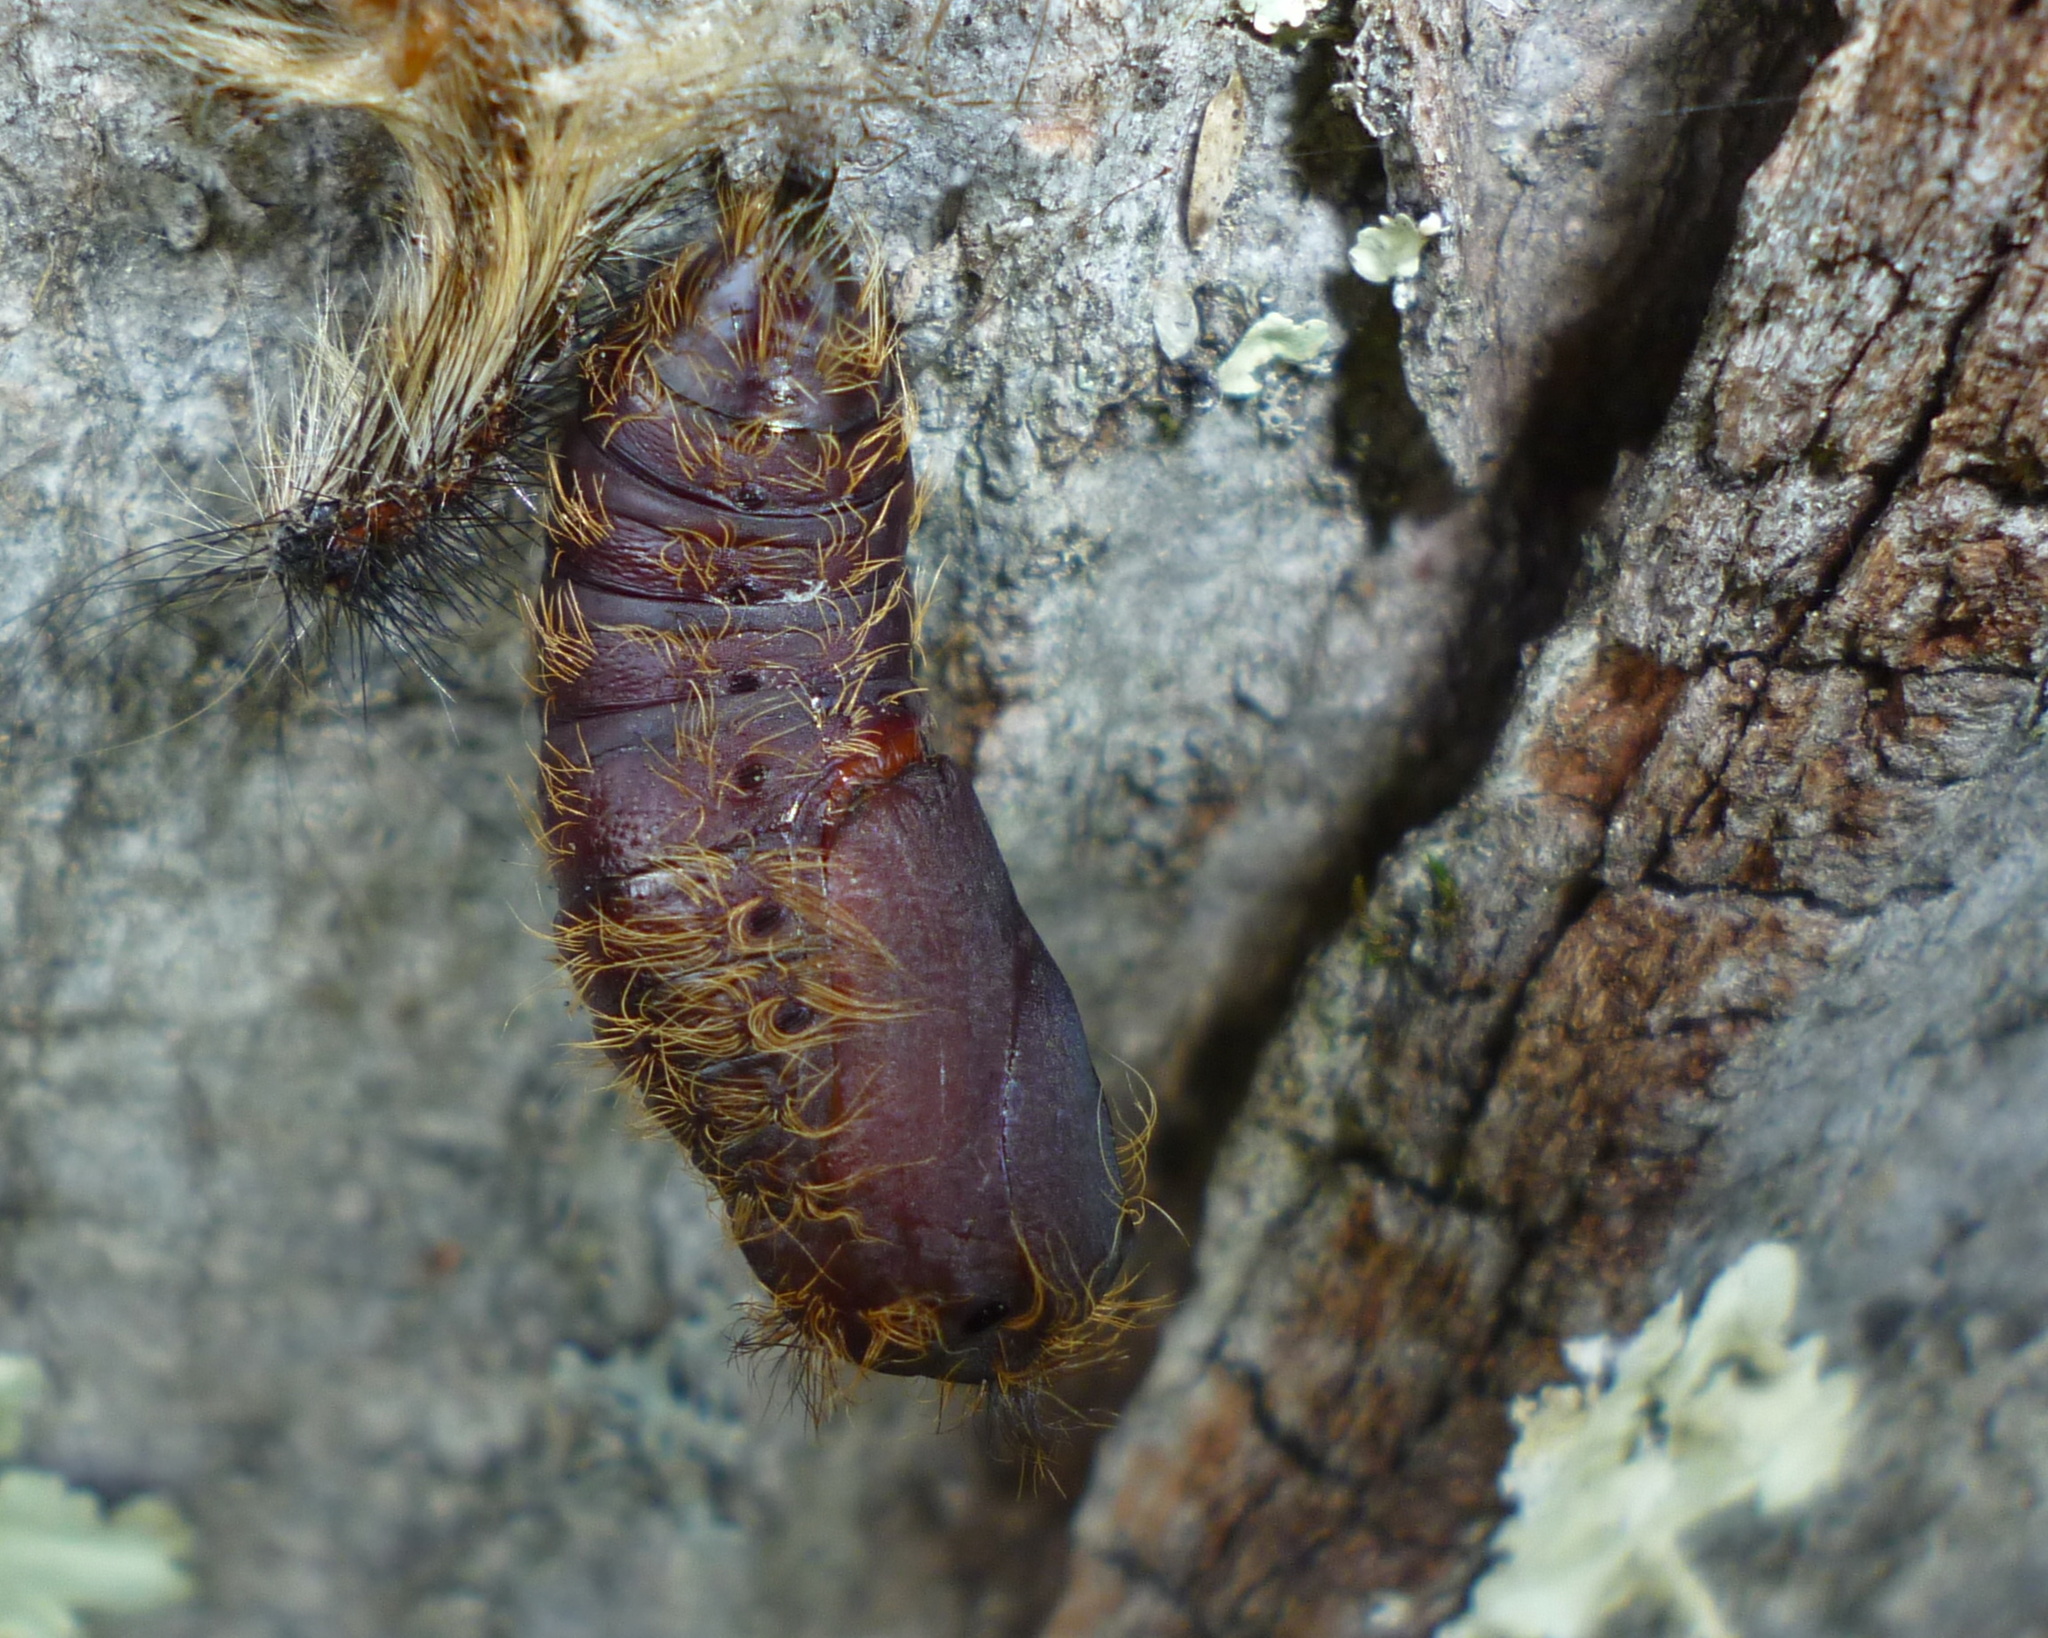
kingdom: Animalia
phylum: Arthropoda
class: Insecta
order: Lepidoptera
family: Erebidae
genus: Lymantria
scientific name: Lymantria dispar
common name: Gypsy moth
